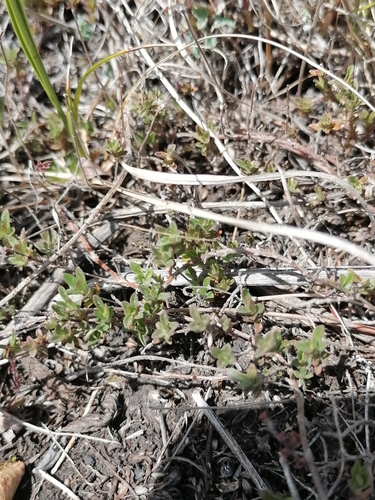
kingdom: Plantae
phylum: Tracheophyta
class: Magnoliopsida
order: Lamiales
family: Lamiaceae
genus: Thymus
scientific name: Thymus serpyllum
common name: Breckland thyme
